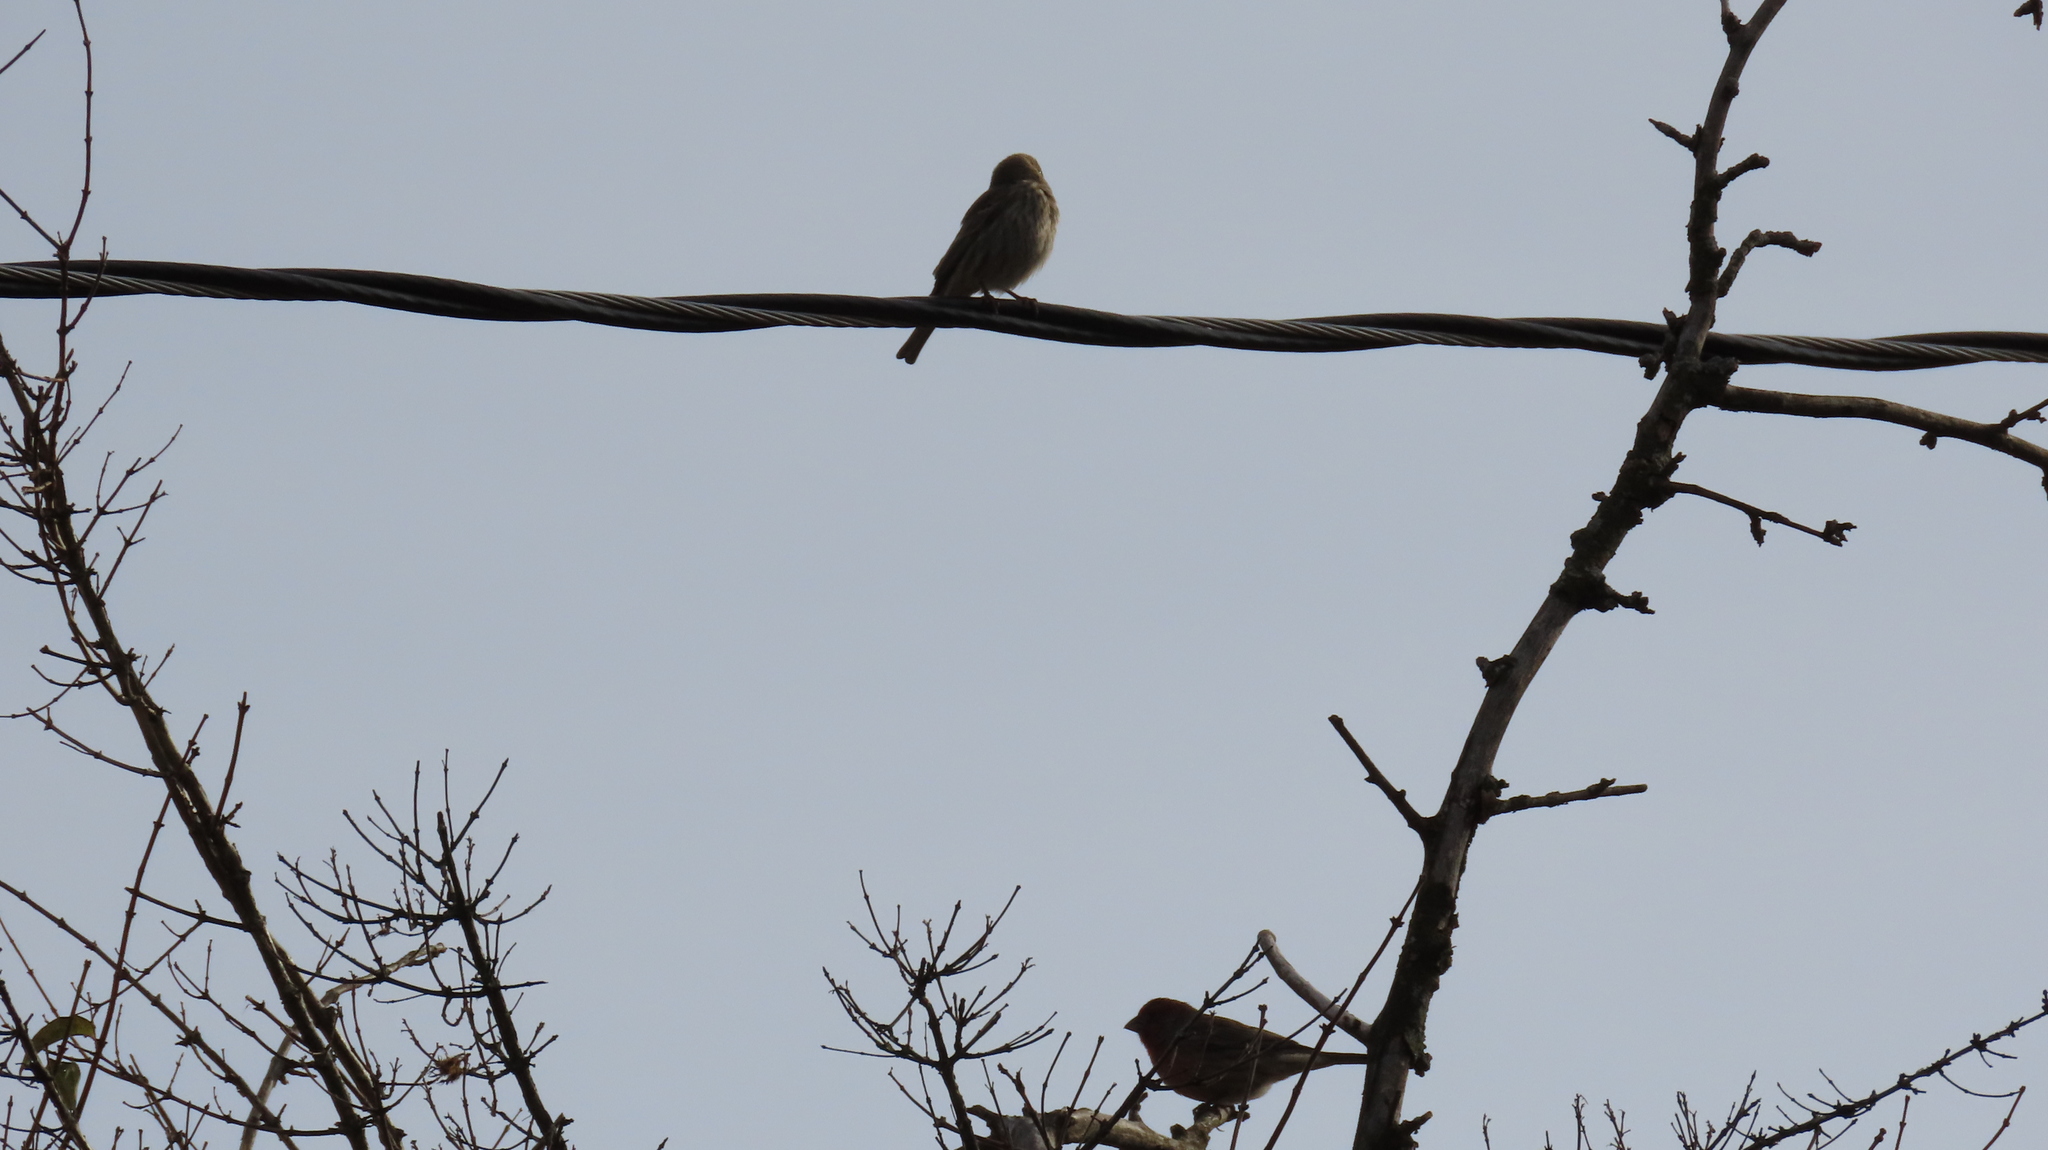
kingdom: Animalia
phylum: Chordata
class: Aves
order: Passeriformes
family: Fringillidae
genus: Haemorhous
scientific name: Haemorhous mexicanus
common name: House finch
